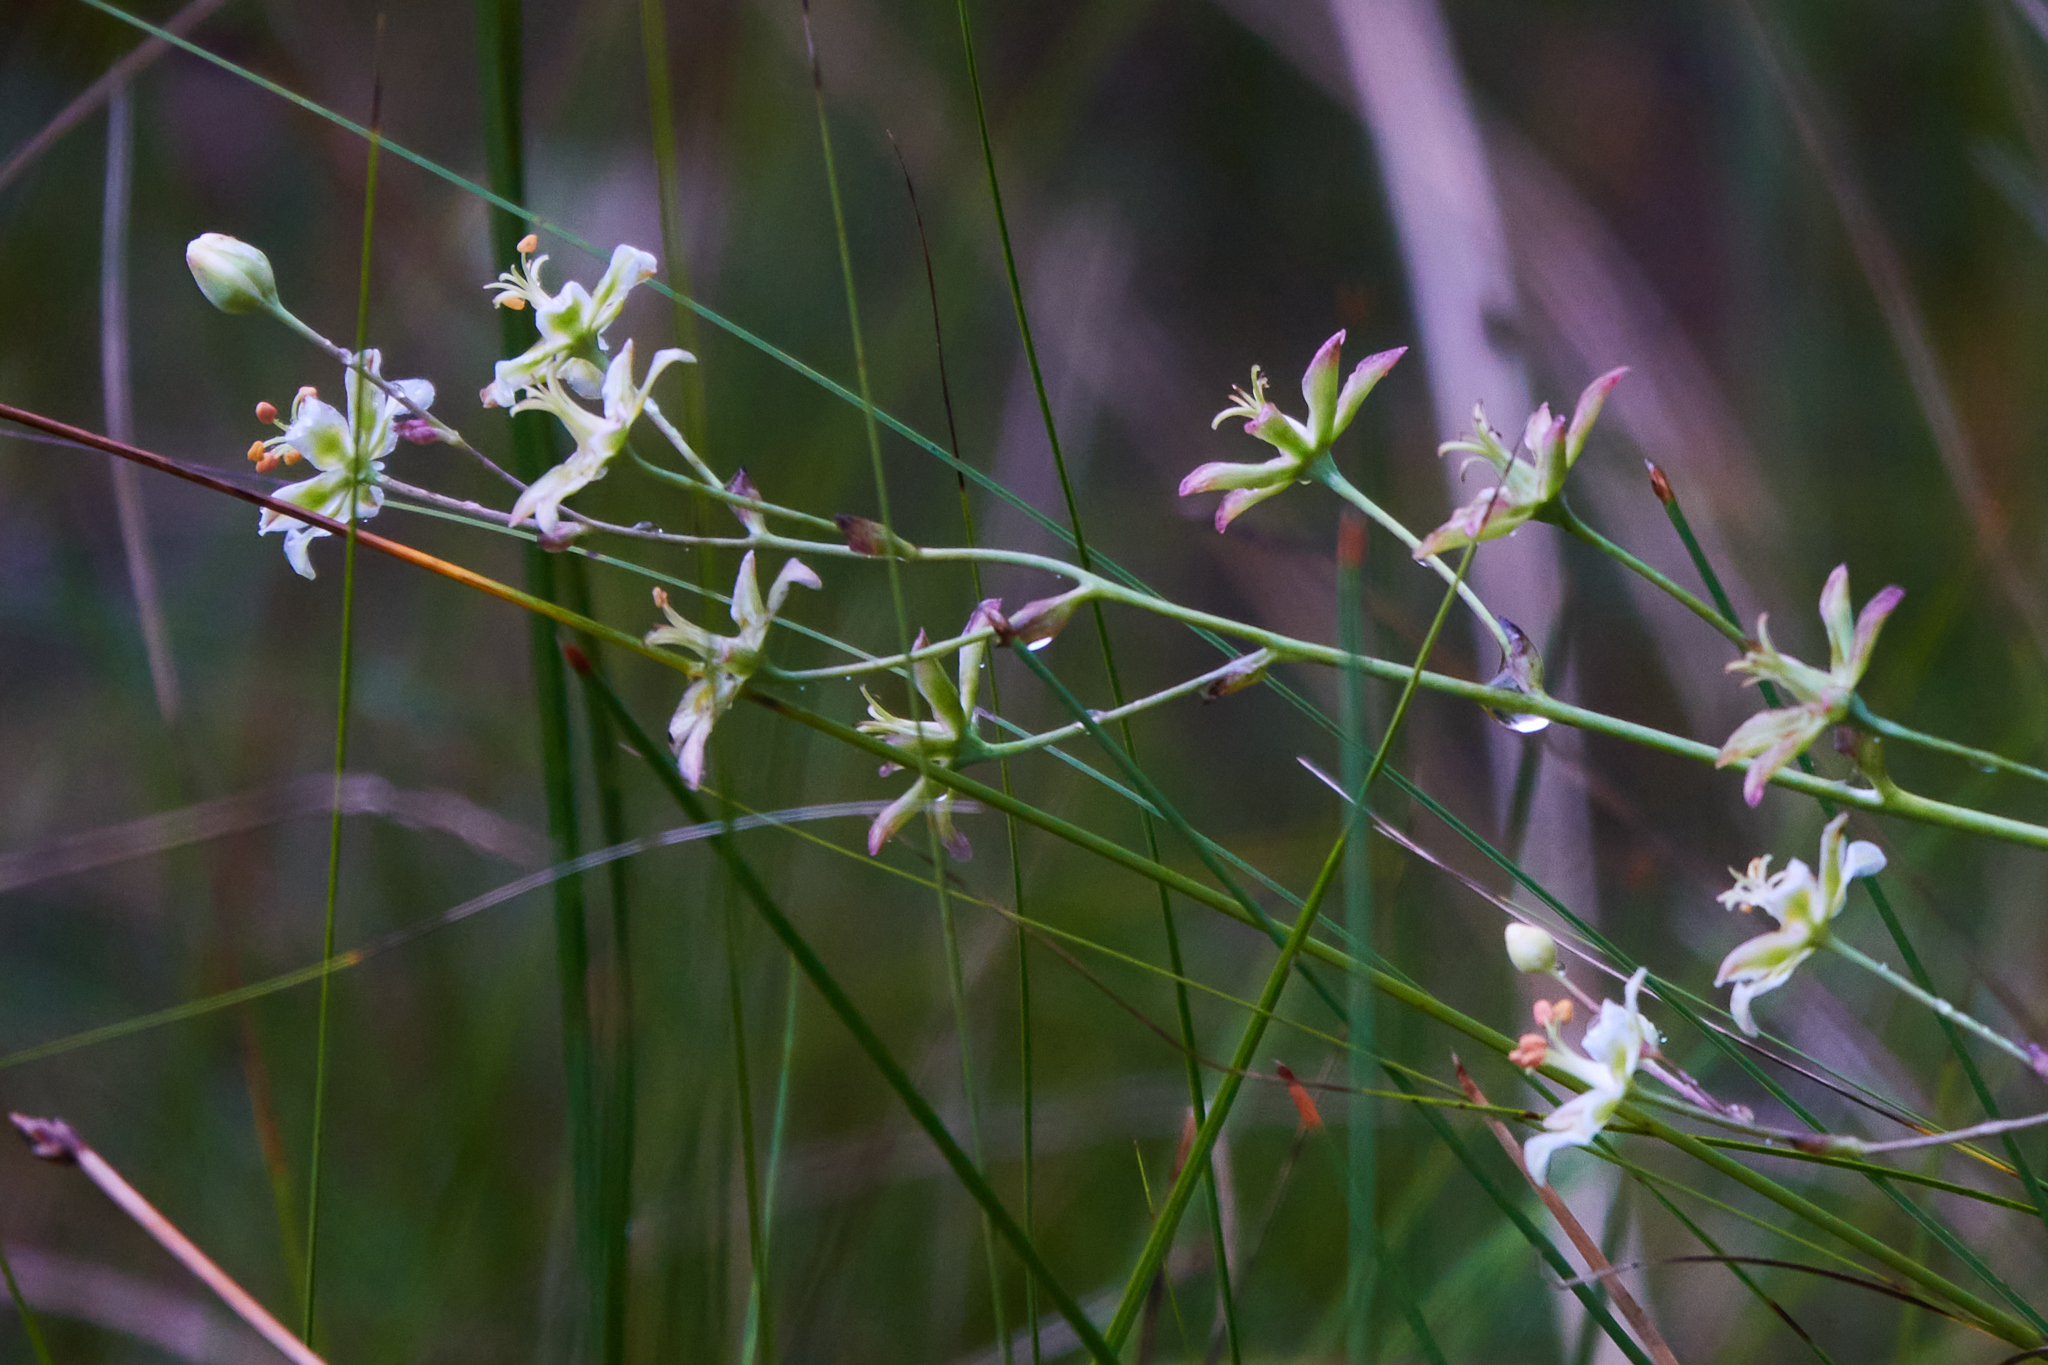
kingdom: Plantae
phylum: Tracheophyta
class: Liliopsida
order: Liliales
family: Melanthiaceae
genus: Anticlea
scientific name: Anticlea elegans
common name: Mountain death camas
